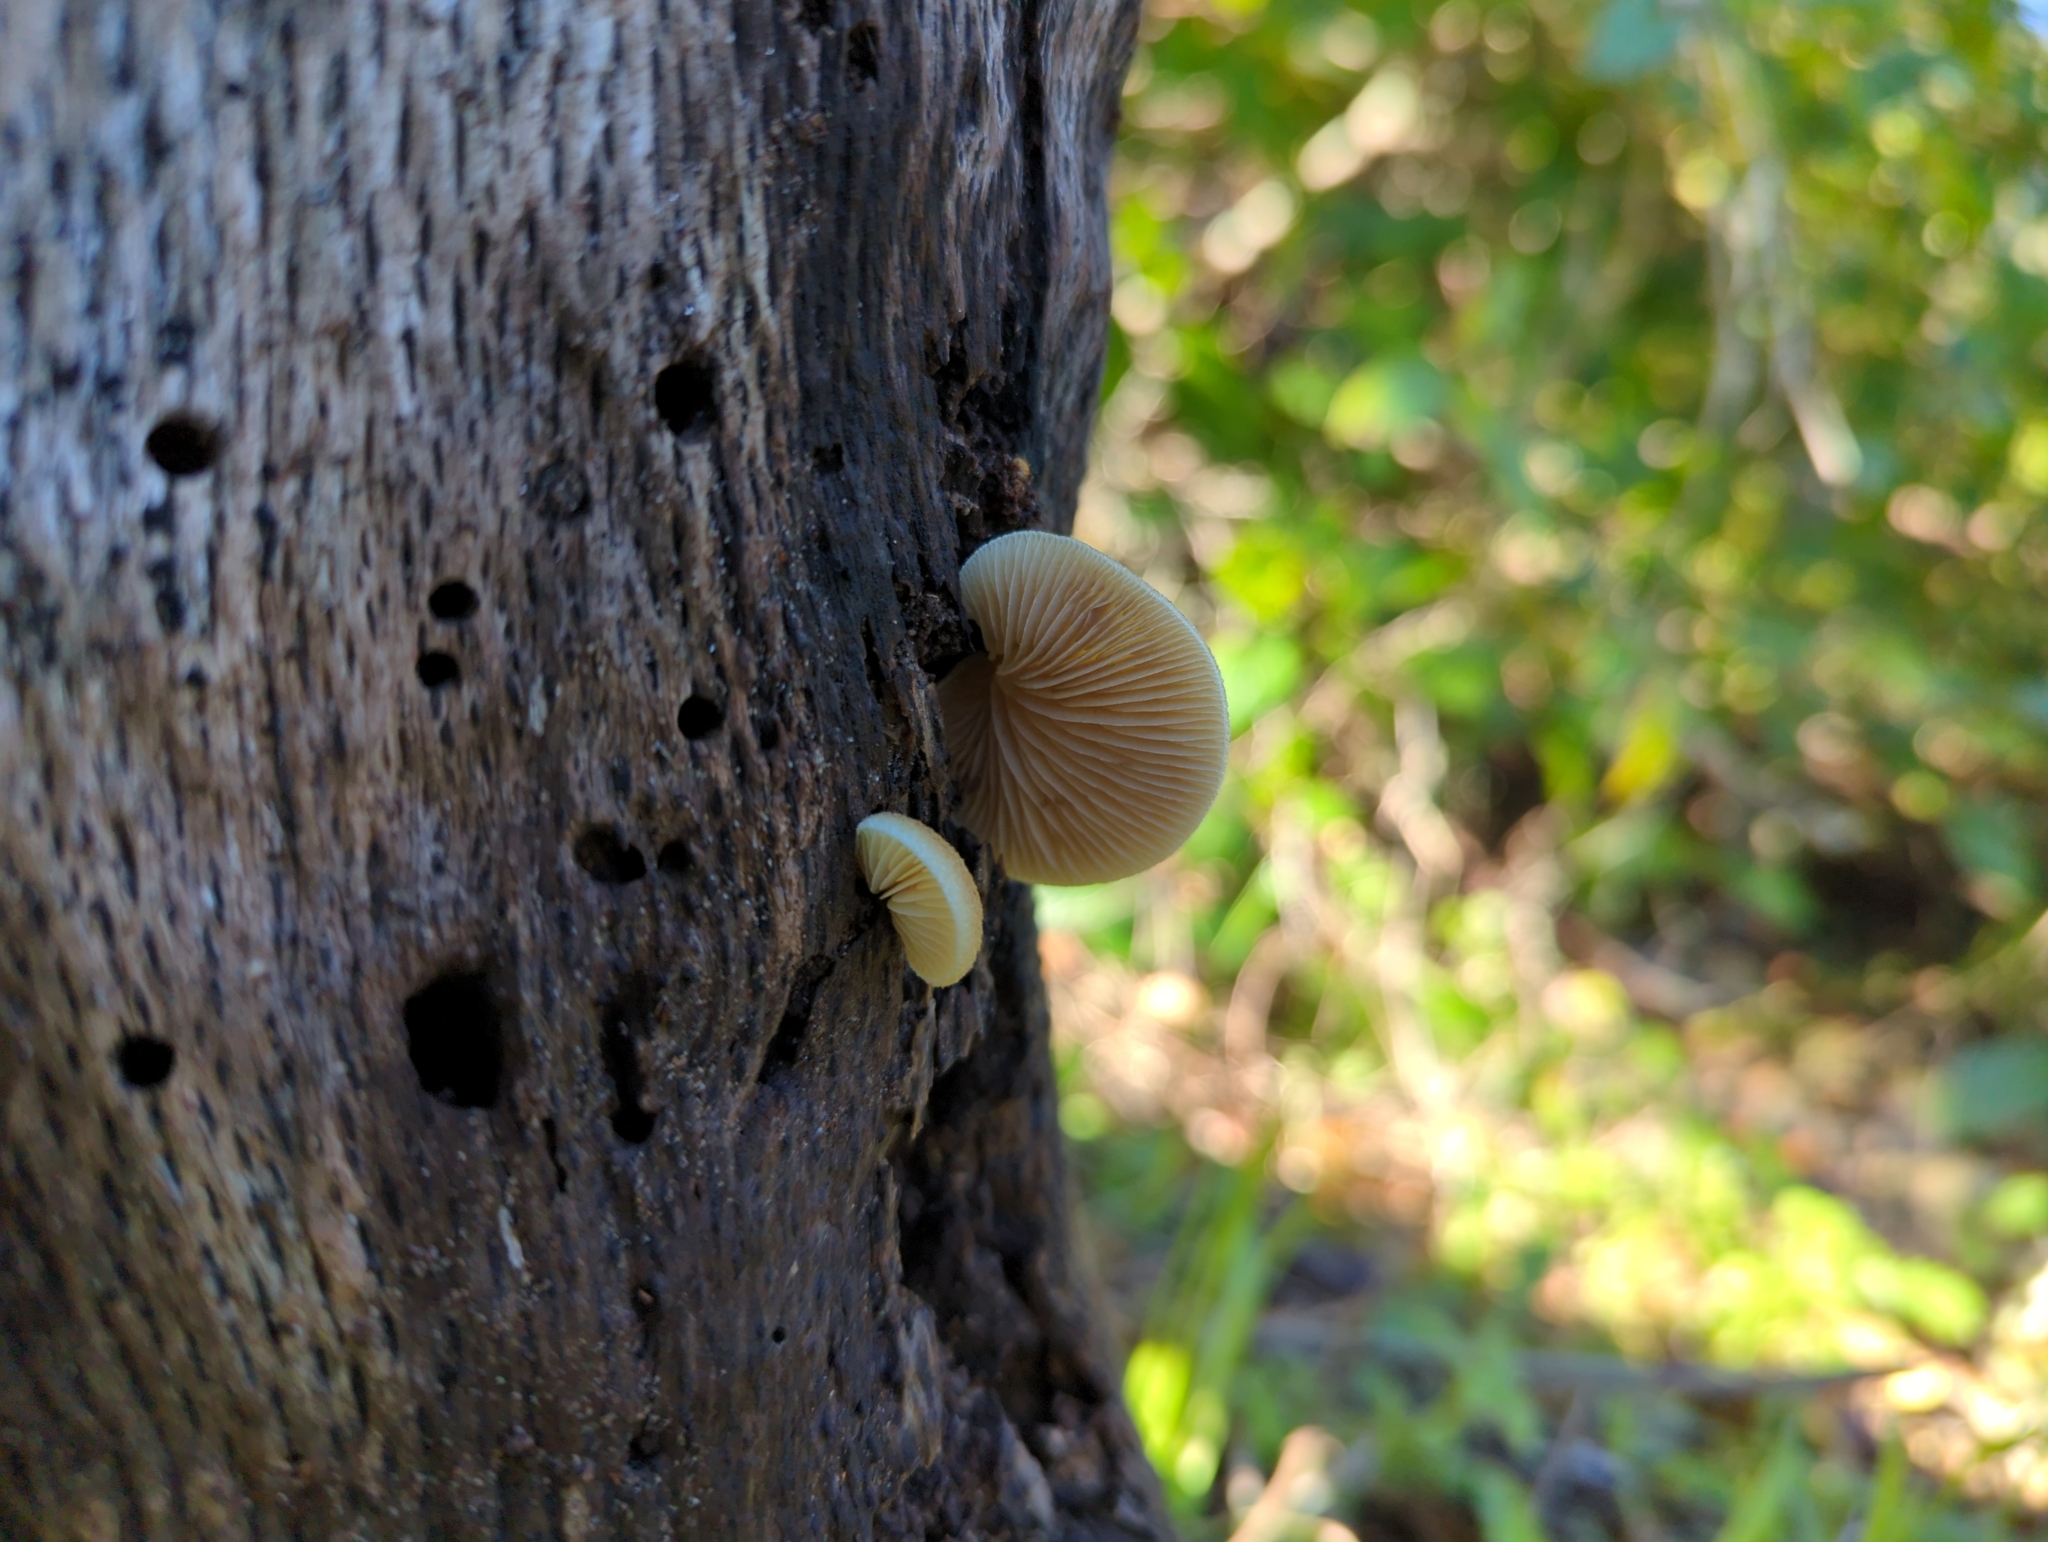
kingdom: Fungi
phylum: Basidiomycota
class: Agaricomycetes
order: Agaricales
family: Crepidotaceae
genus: Crepidotus
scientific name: Crepidotus mollis
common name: Peeling oysterling
